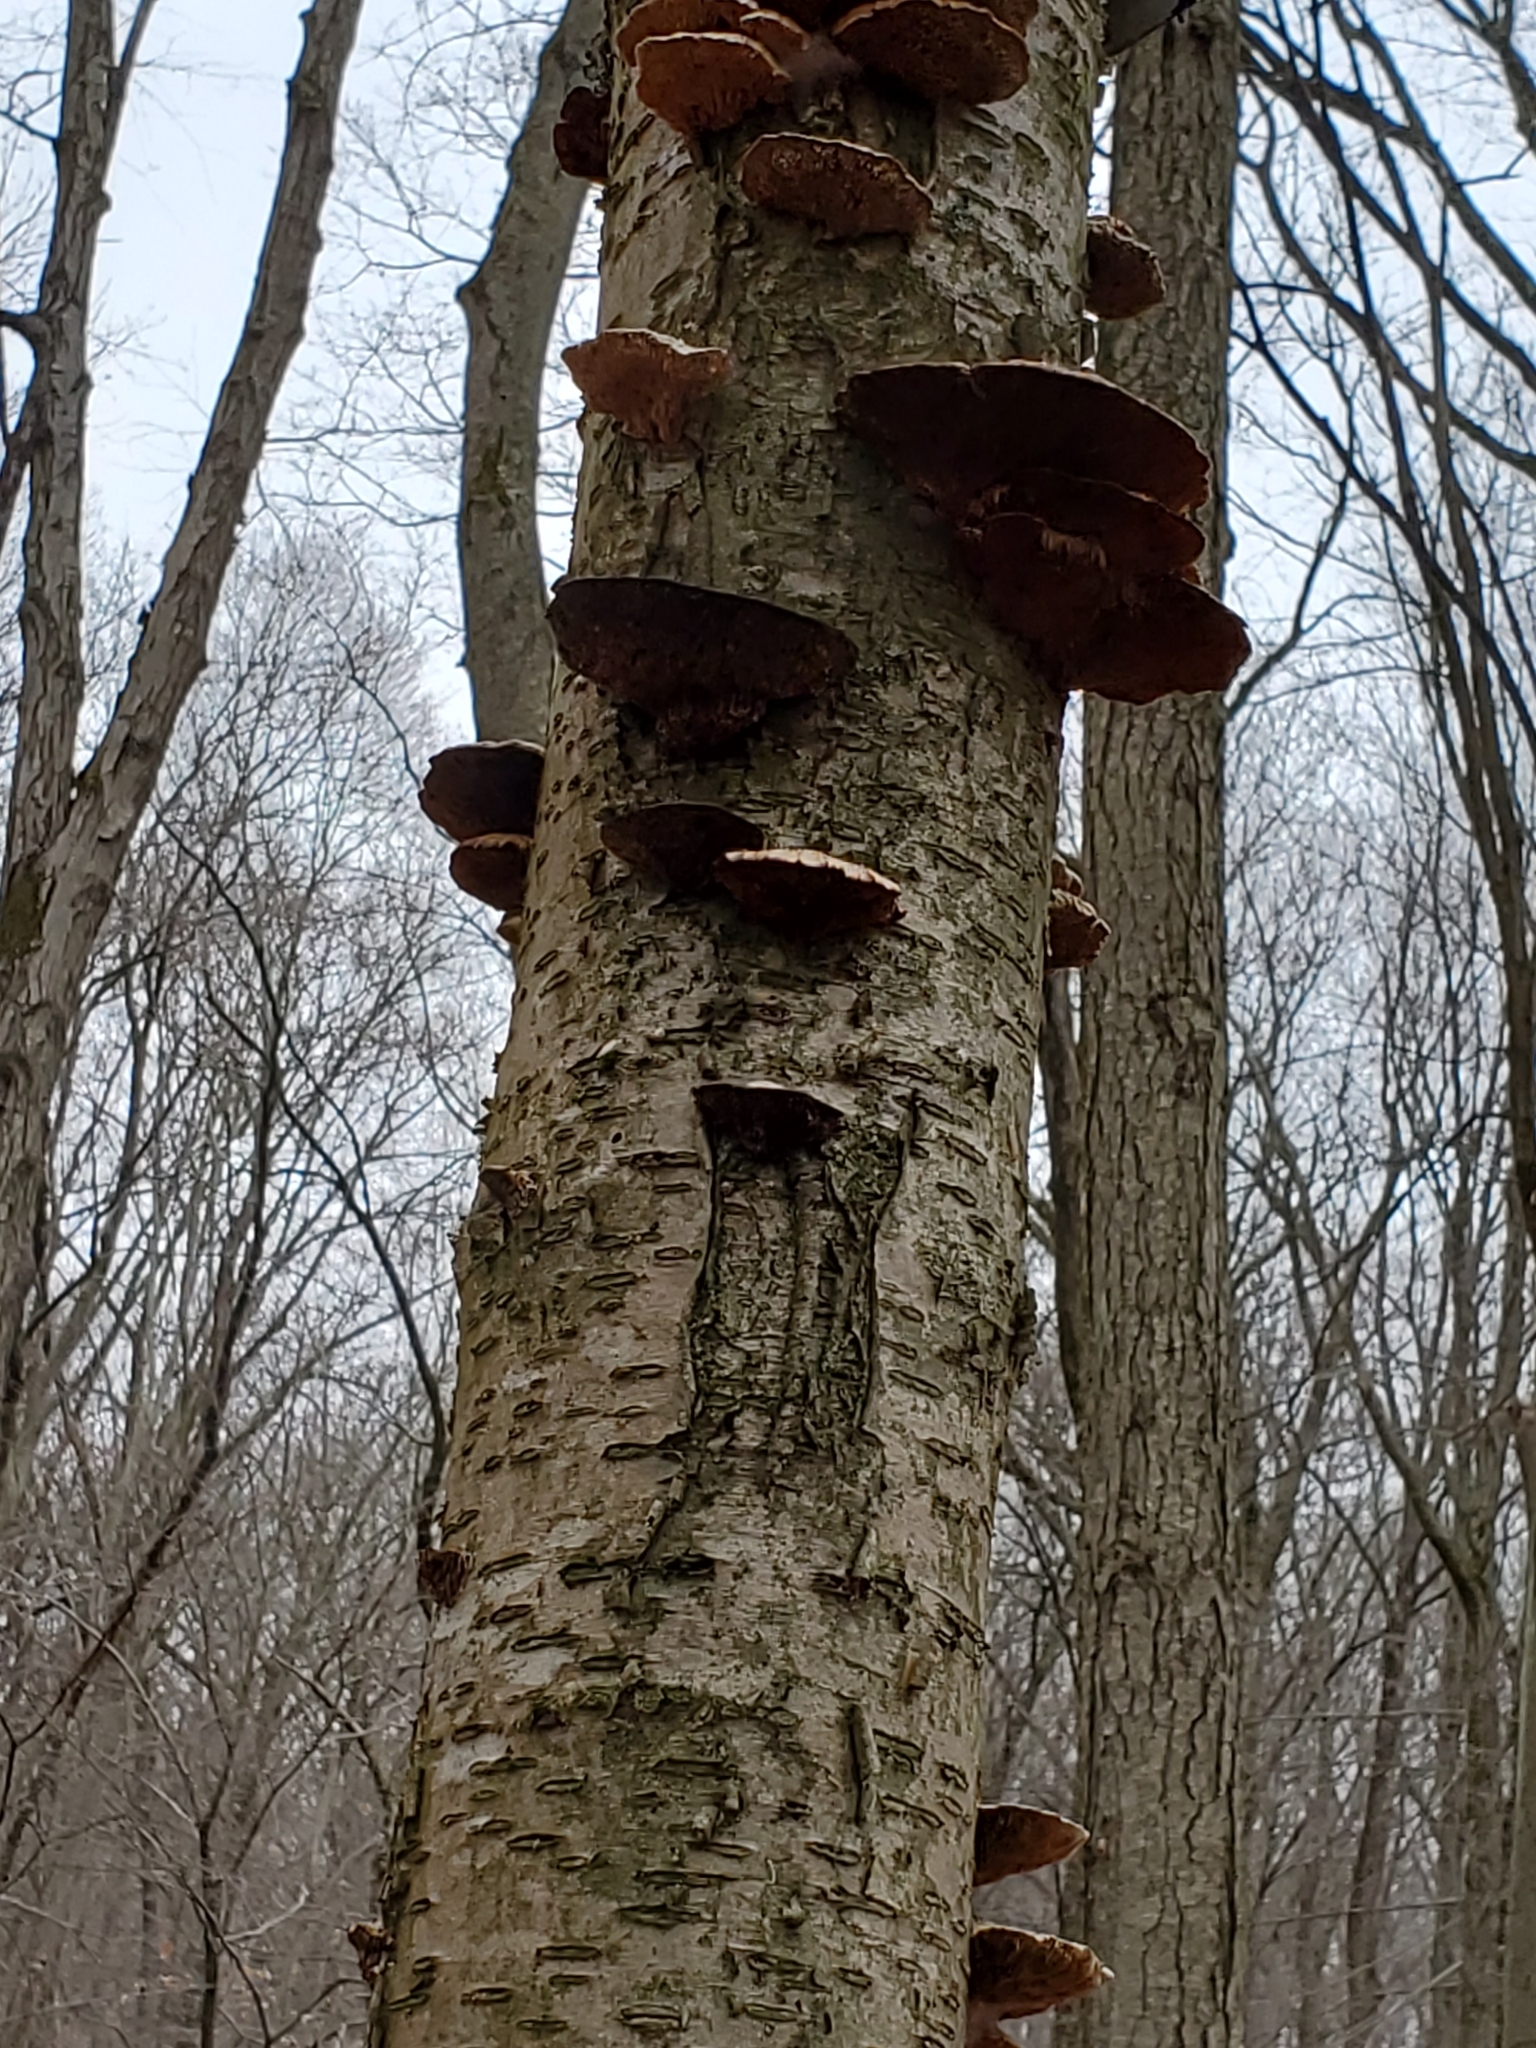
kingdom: Fungi
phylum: Basidiomycota
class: Agaricomycetes
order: Polyporales
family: Polyporaceae
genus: Daedaleopsis
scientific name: Daedaleopsis confragosa
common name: Blushing bracket
